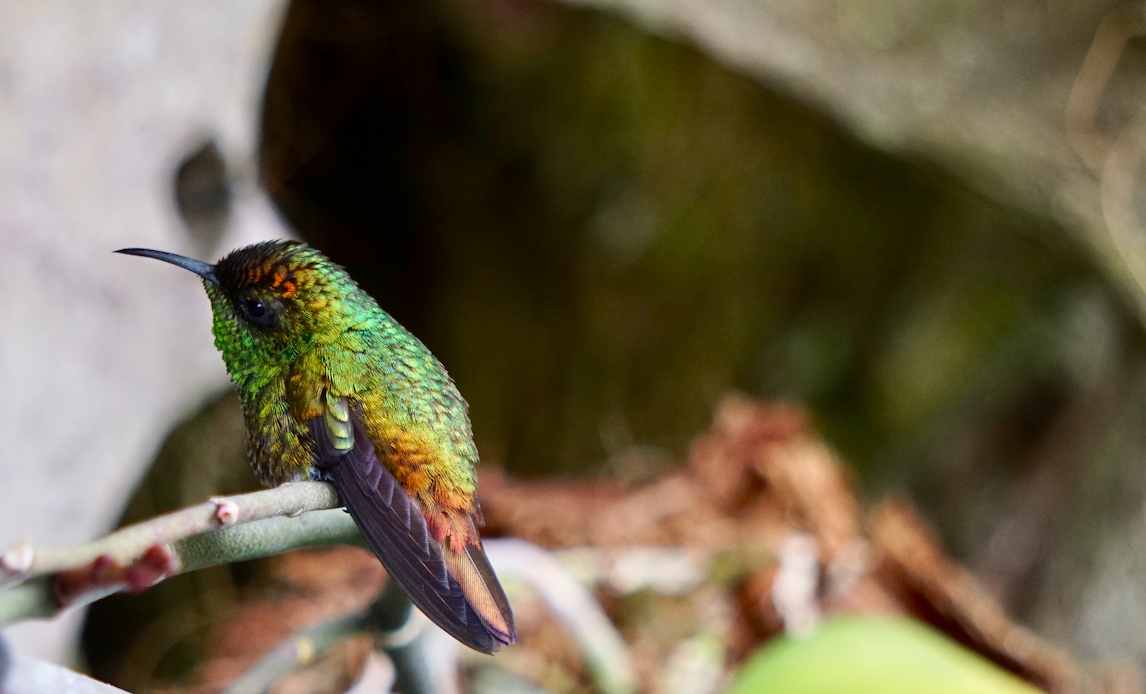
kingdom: Animalia
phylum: Chordata
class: Aves
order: Apodiformes
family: Trochilidae
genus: Microchera
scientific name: Microchera cupreiceps
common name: Coppery-headed emerald
